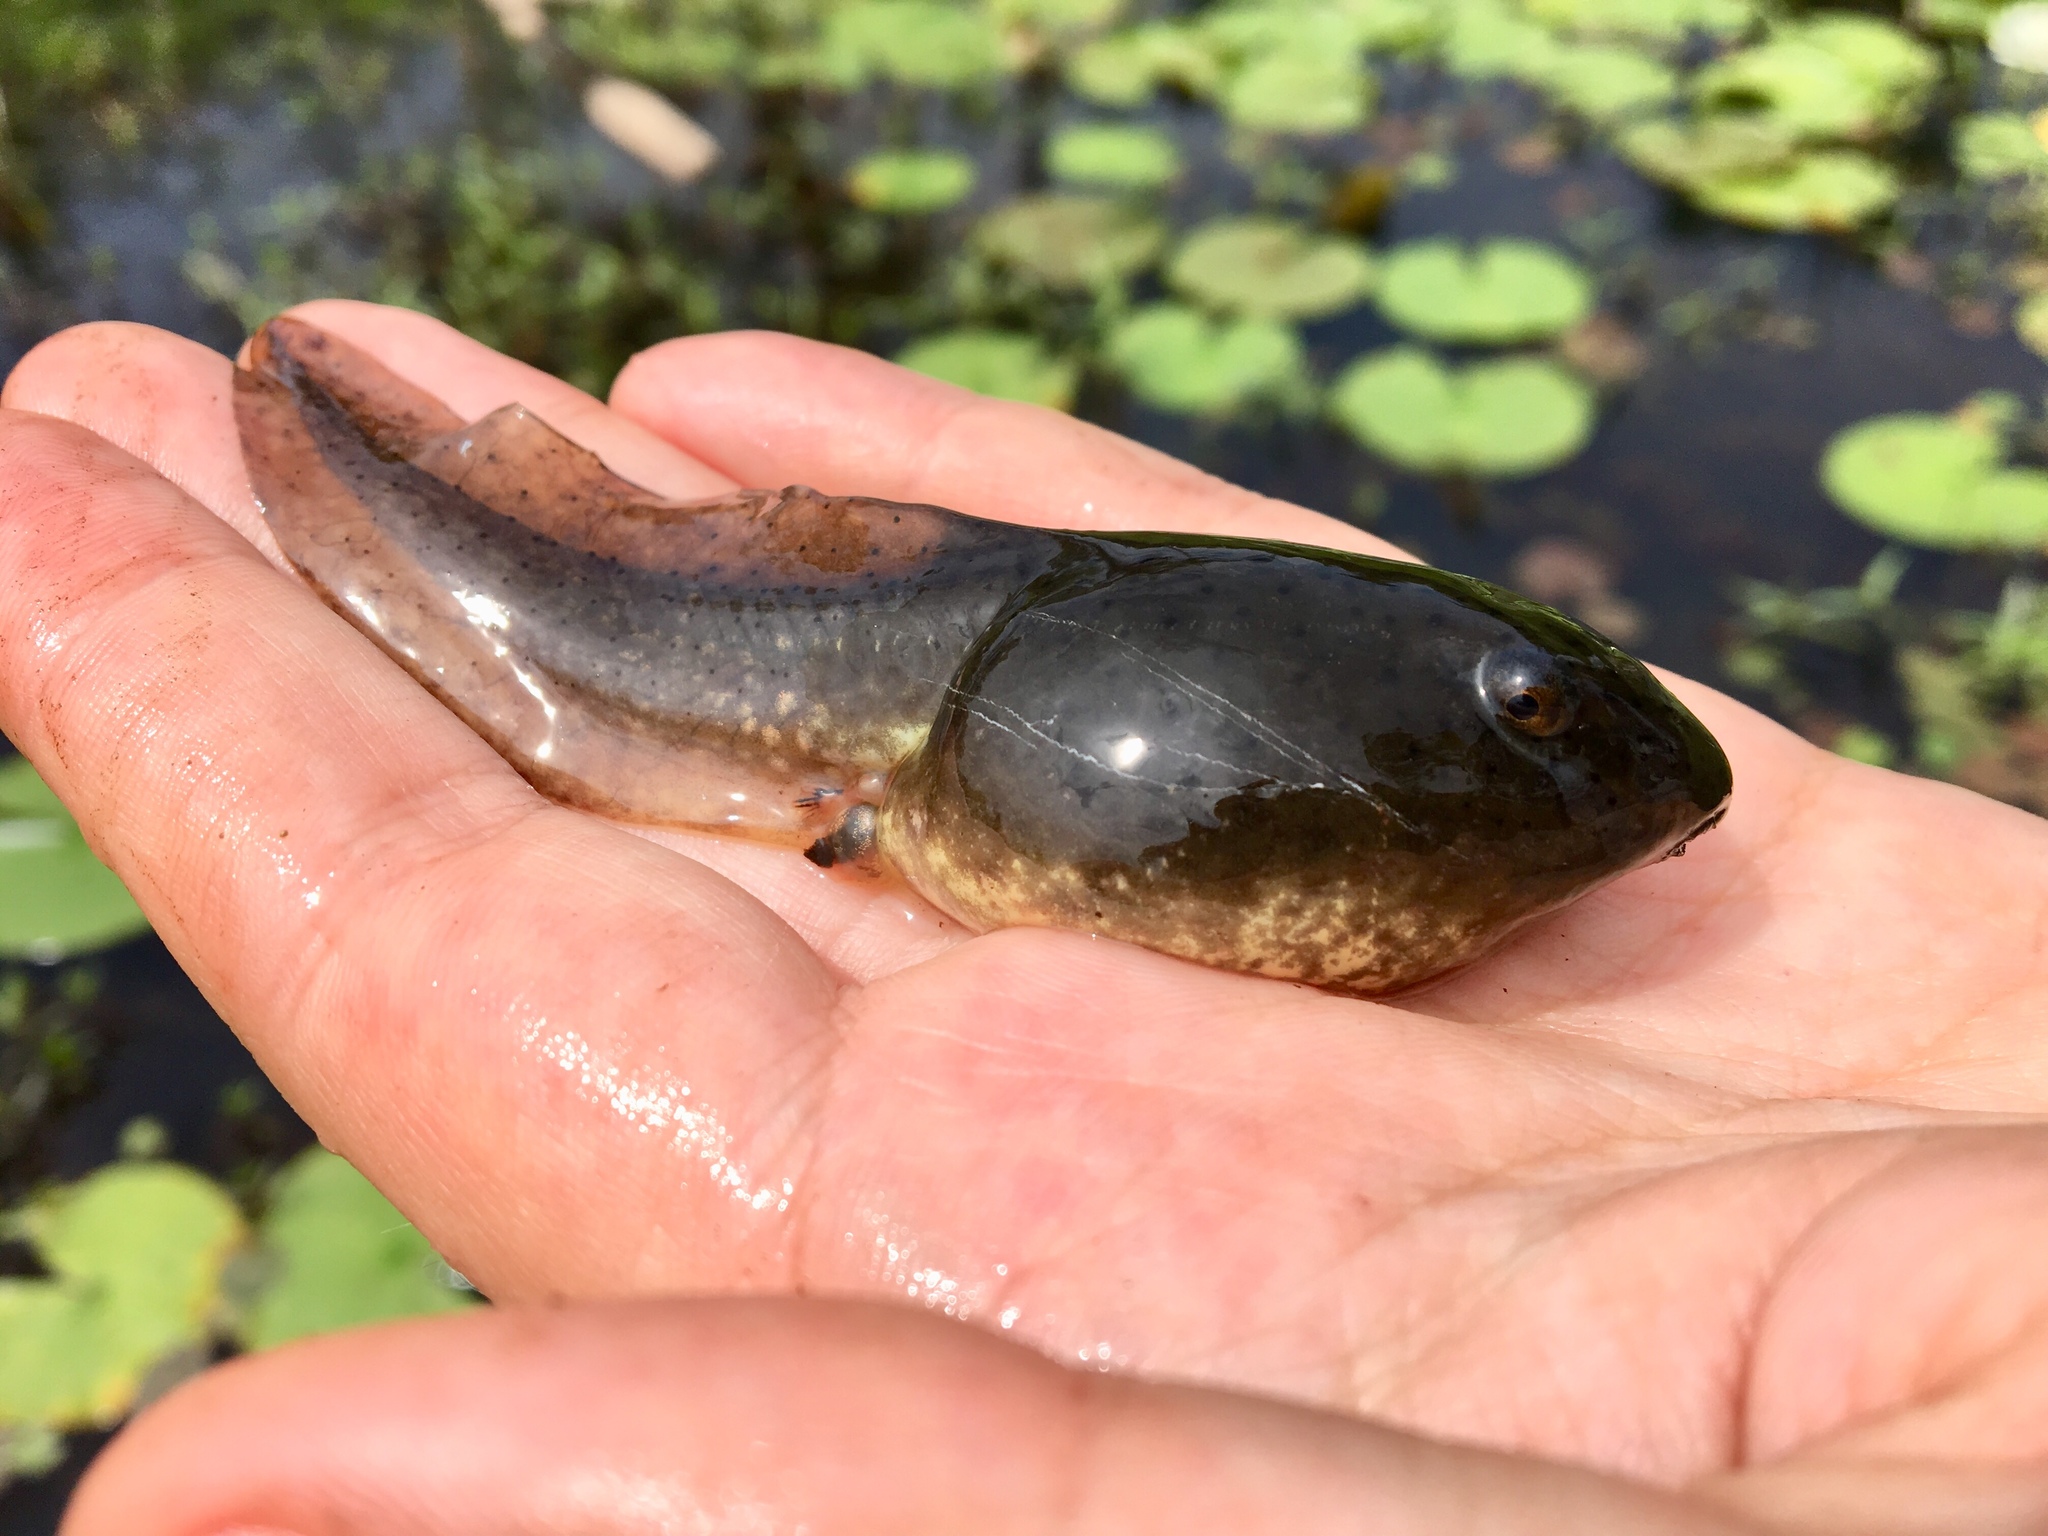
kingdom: Animalia
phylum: Chordata
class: Amphibia
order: Anura
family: Ranidae
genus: Lithobates
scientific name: Lithobates catesbeianus
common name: American bullfrog
